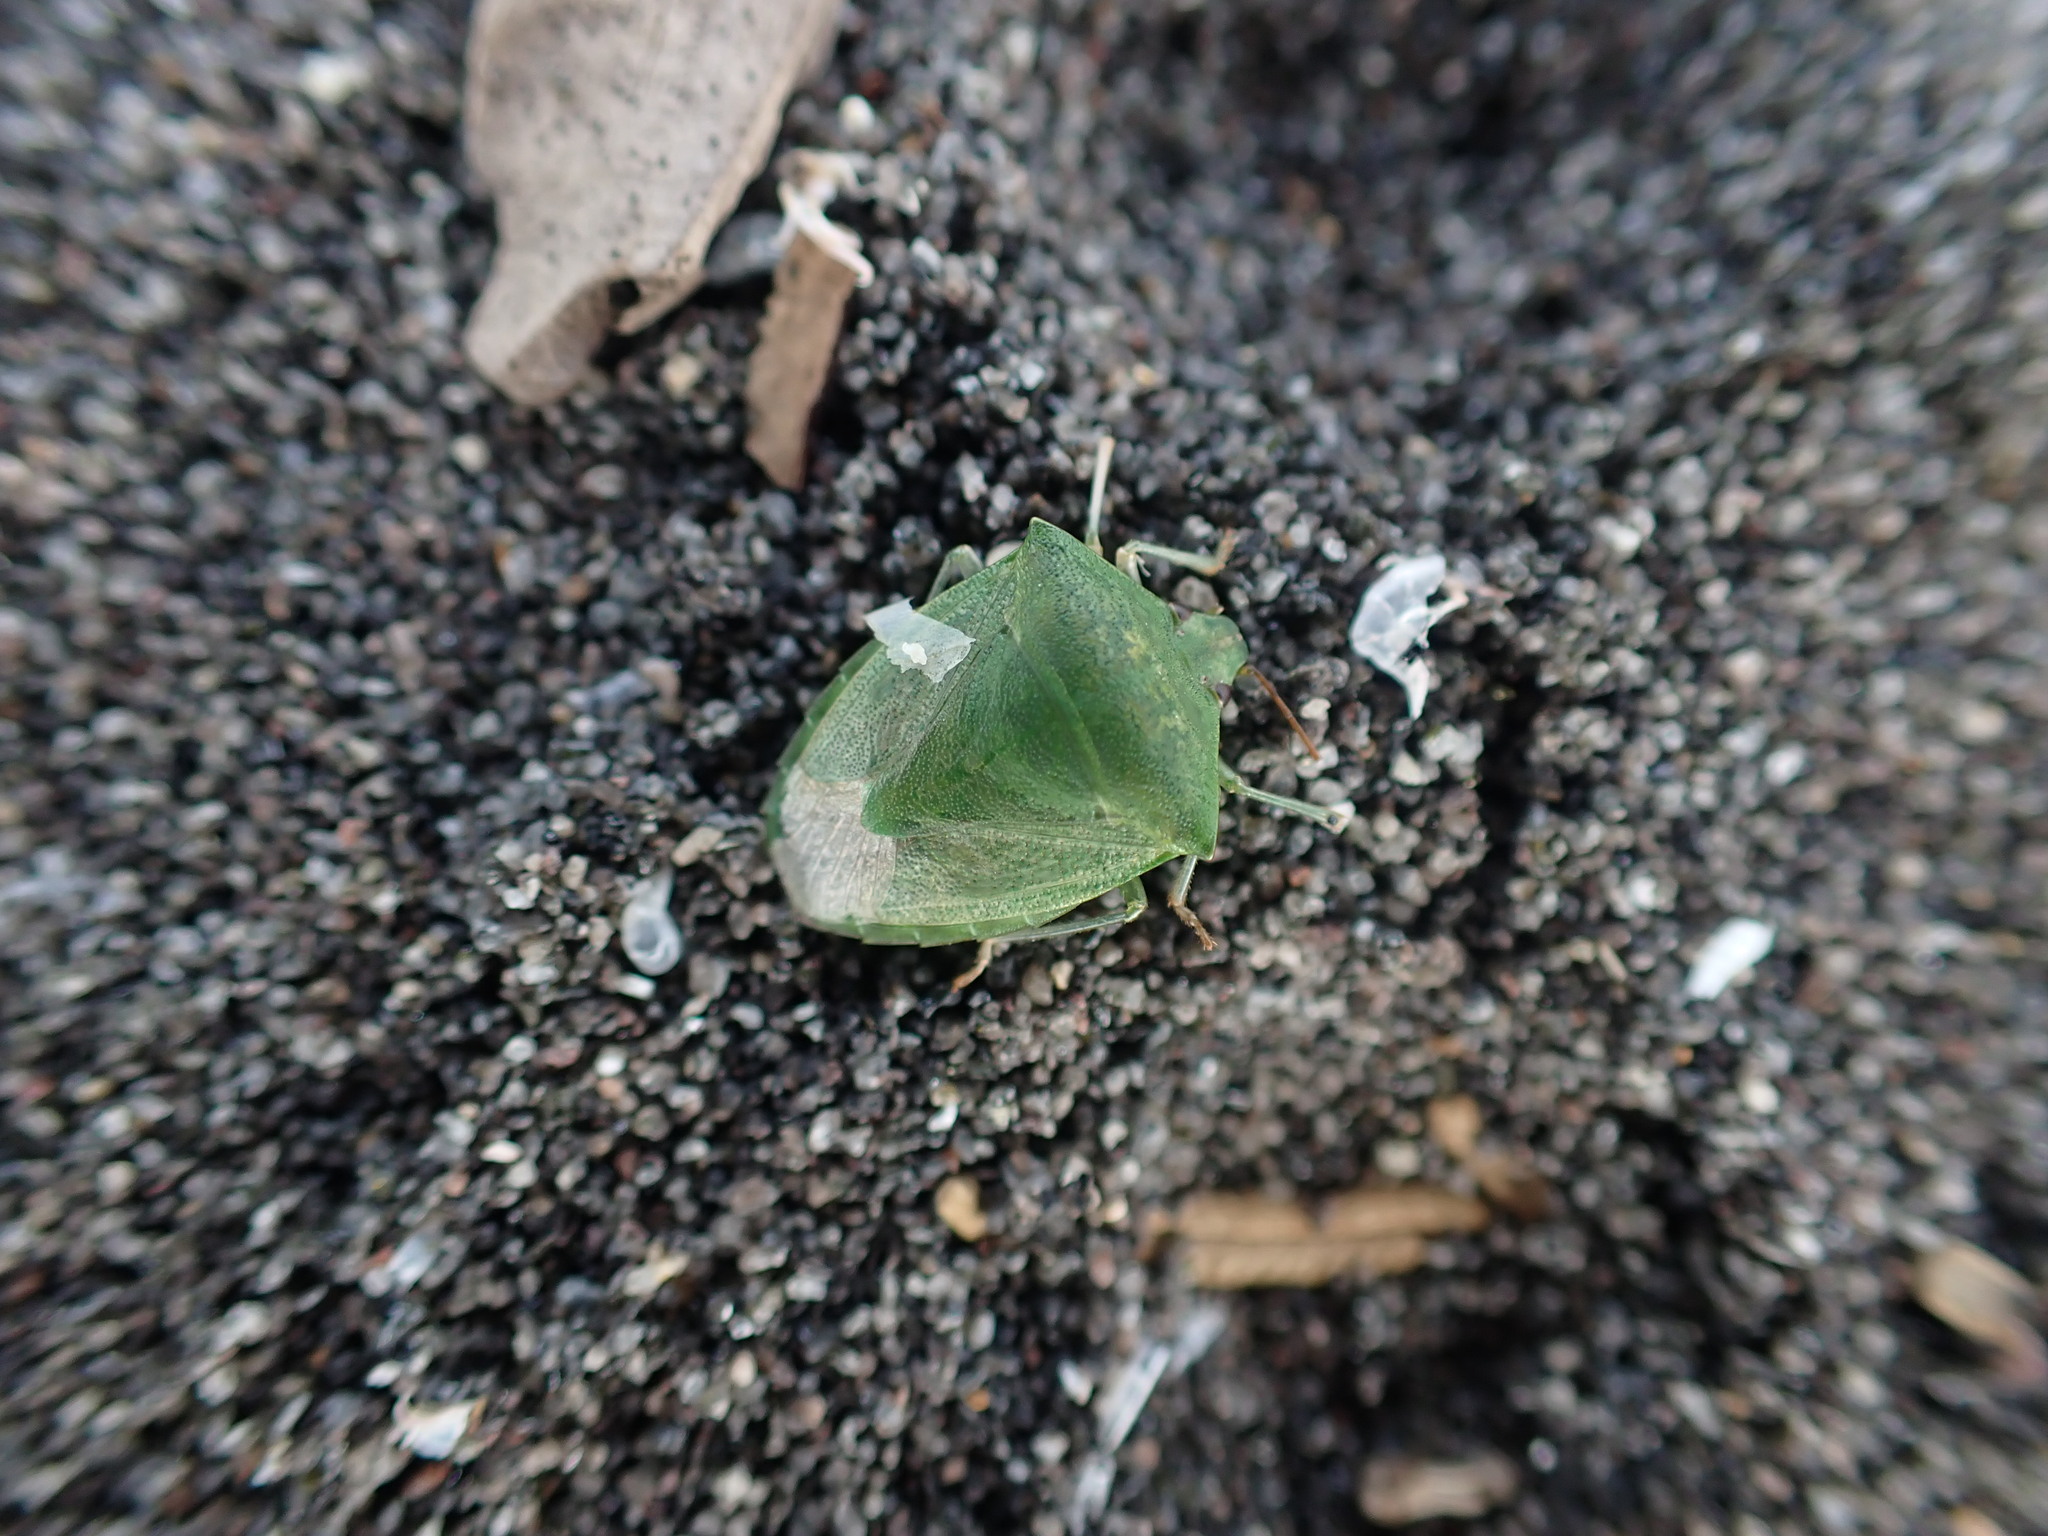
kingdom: Animalia
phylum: Arthropoda
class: Insecta
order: Hemiptera
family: Pentatomidae
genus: Cuspicona
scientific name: Cuspicona simplex
